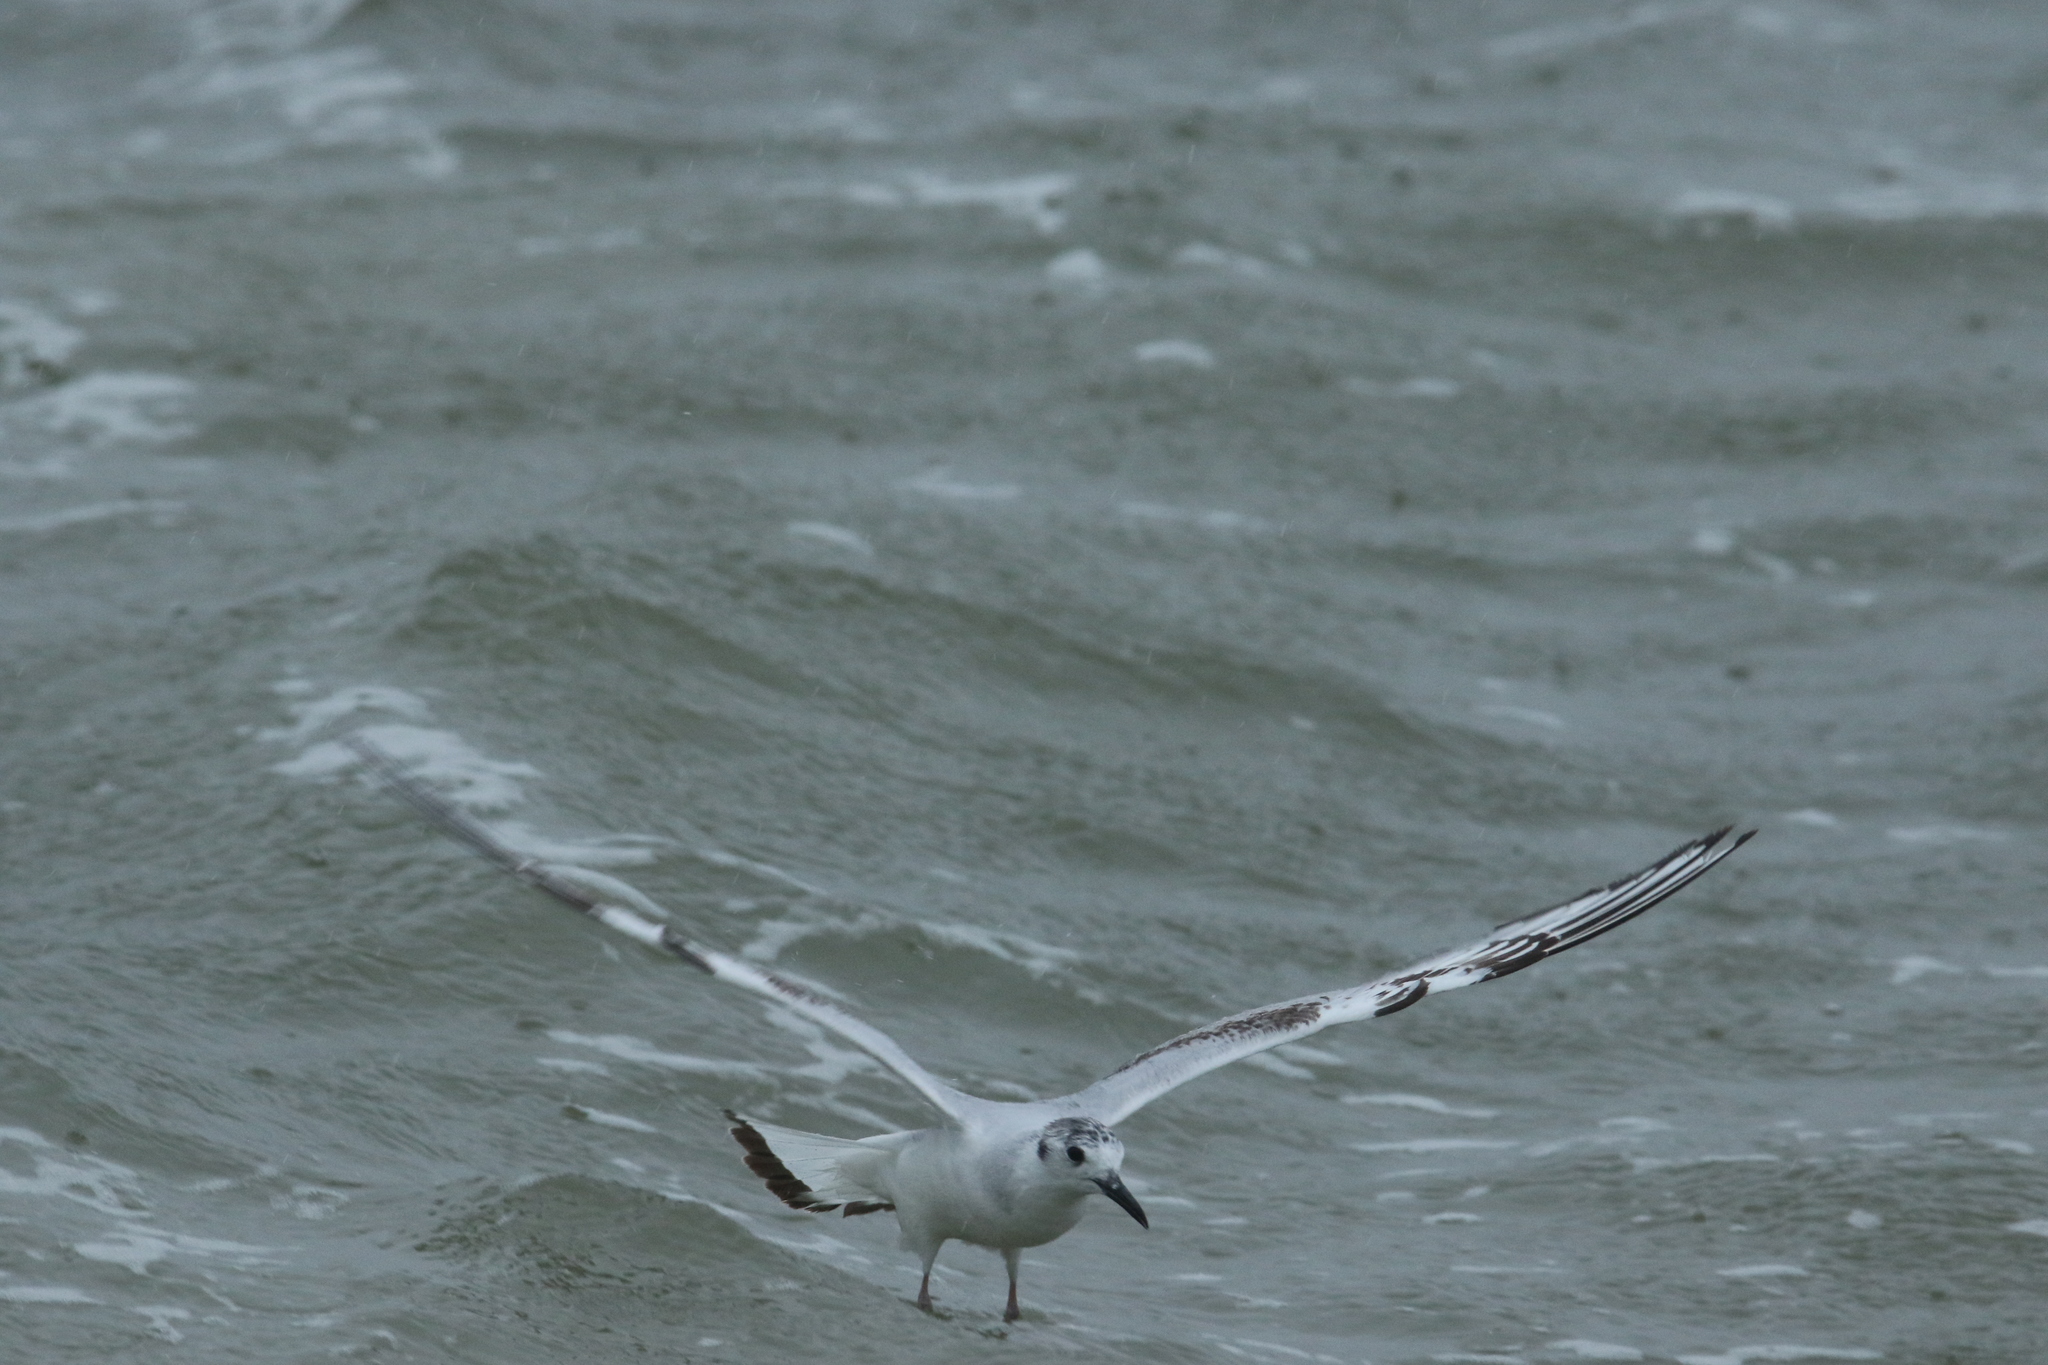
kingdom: Animalia
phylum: Chordata
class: Aves
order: Charadriiformes
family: Laridae
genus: Chroicocephalus
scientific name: Chroicocephalus philadelphia
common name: Bonaparte's gull
